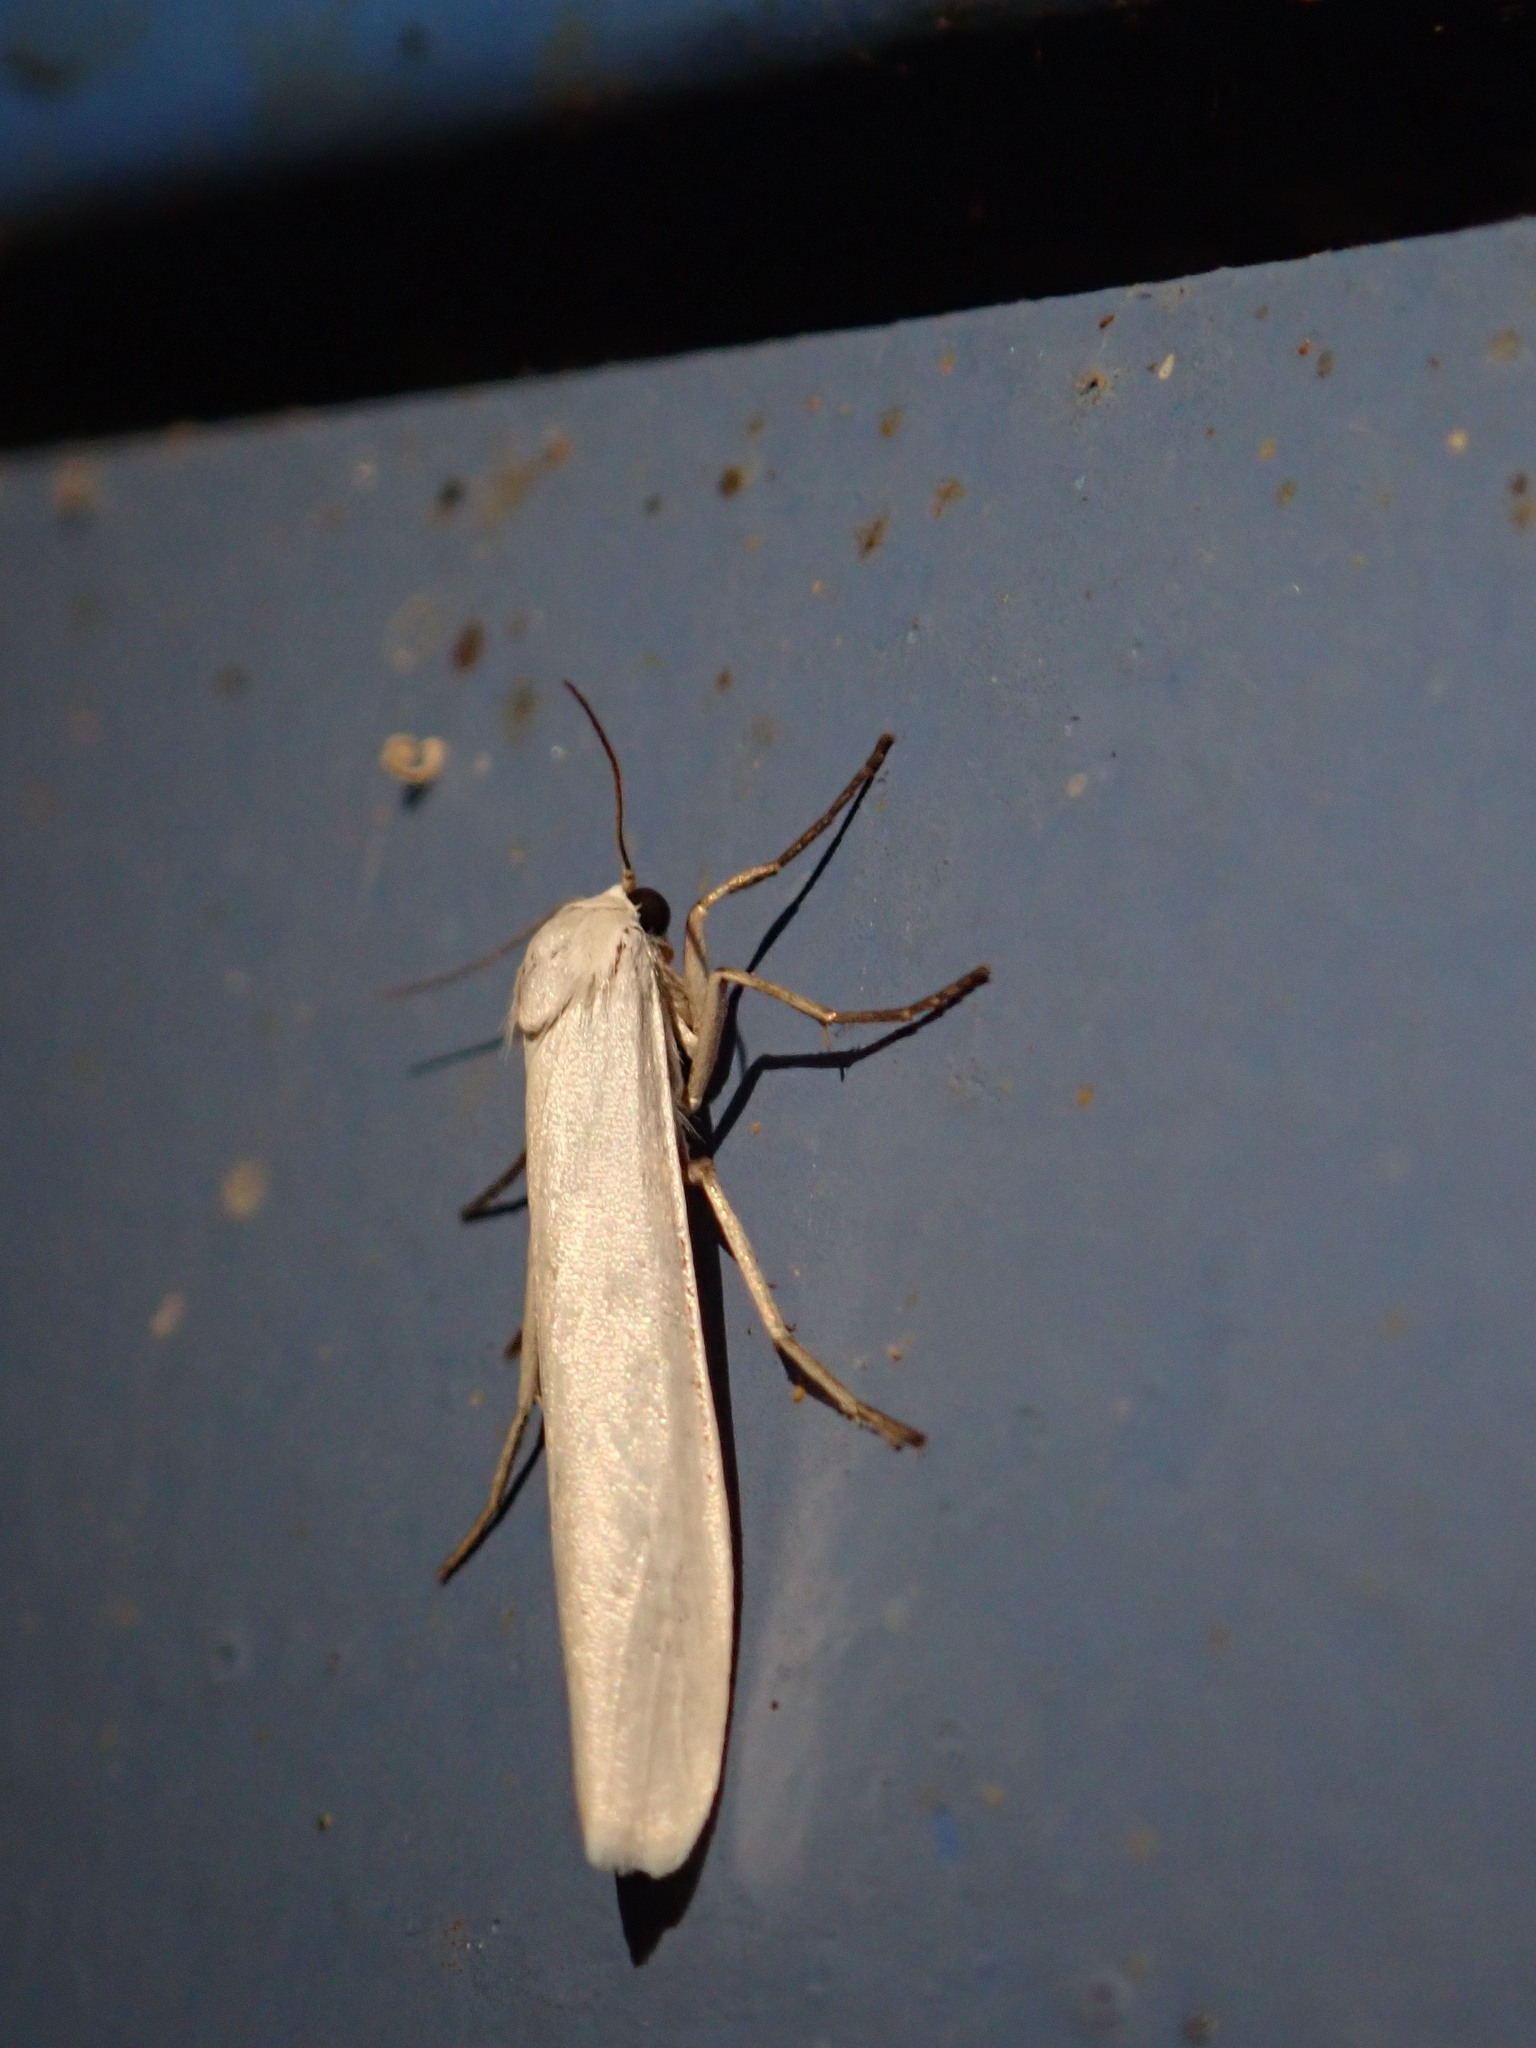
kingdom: Animalia
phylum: Arthropoda
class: Insecta
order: Lepidoptera
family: Erebidae
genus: Crambidia
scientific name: Crambidia casta
